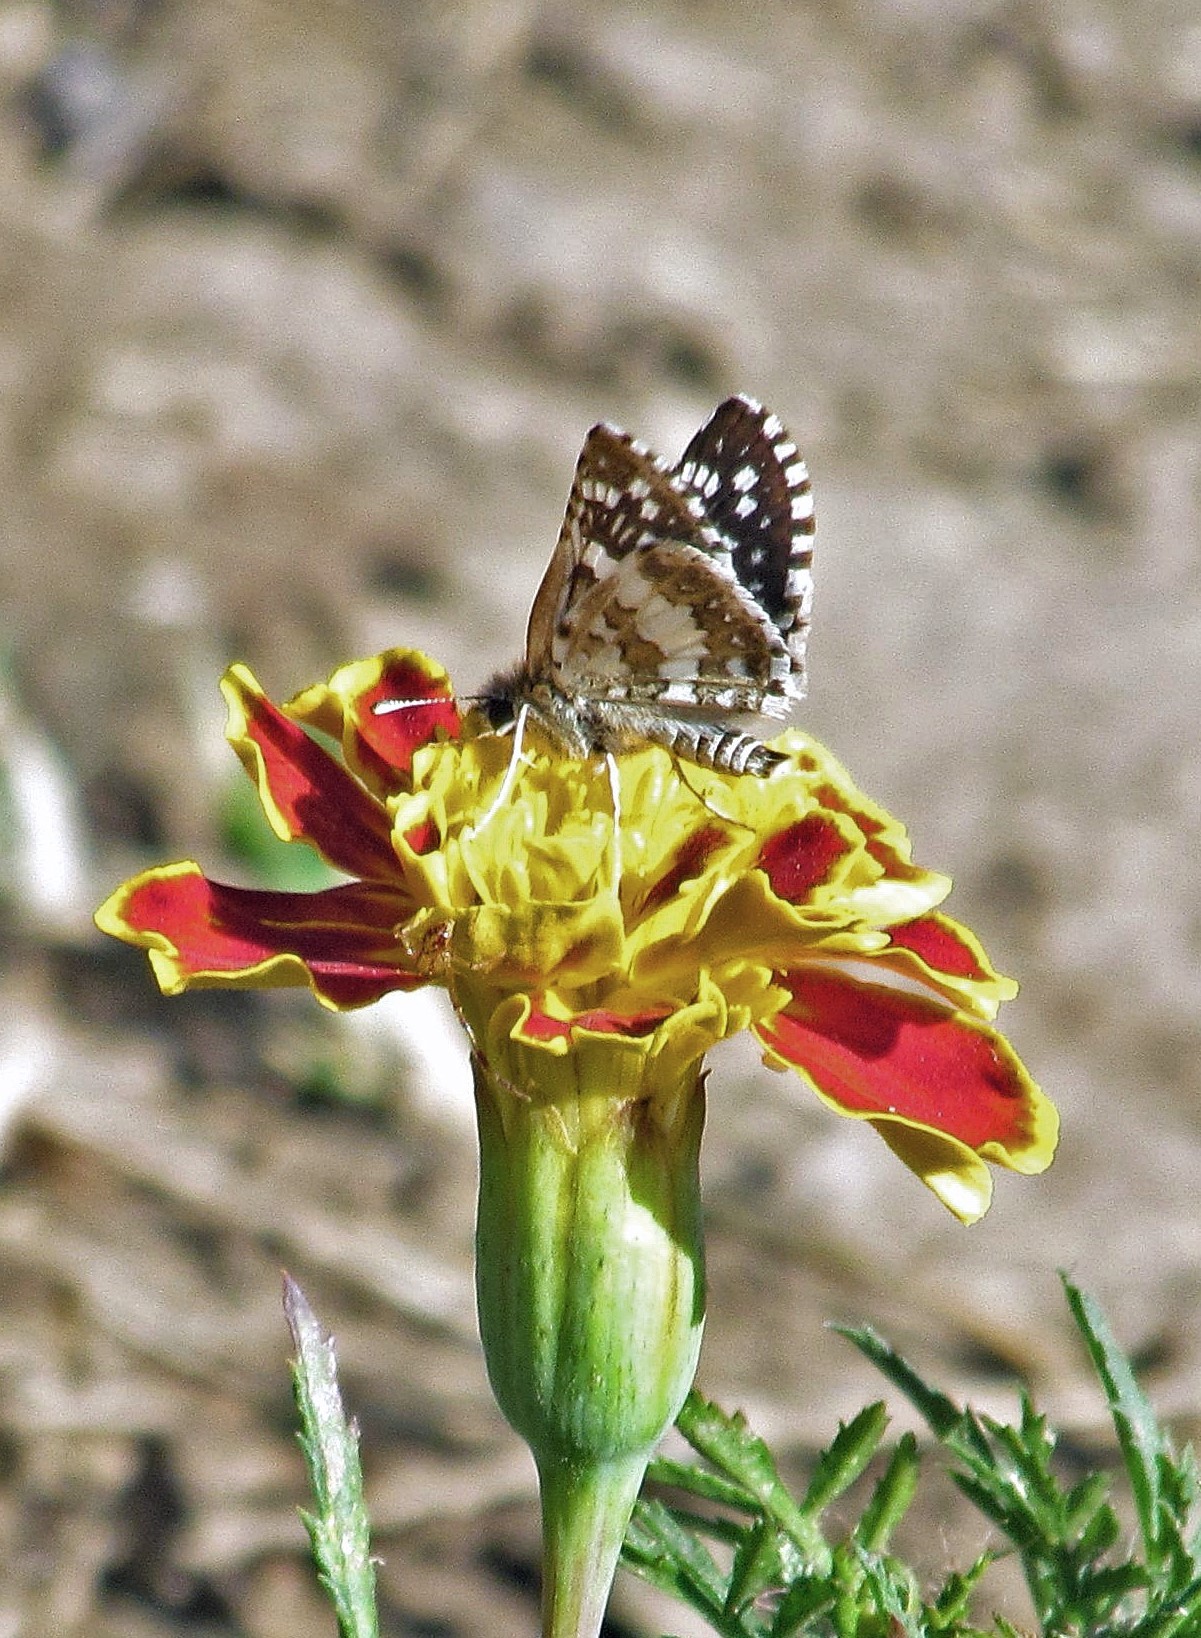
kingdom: Animalia
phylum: Arthropoda
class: Insecta
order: Lepidoptera
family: Hesperiidae
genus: Burnsius
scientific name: Burnsius orcynoides
